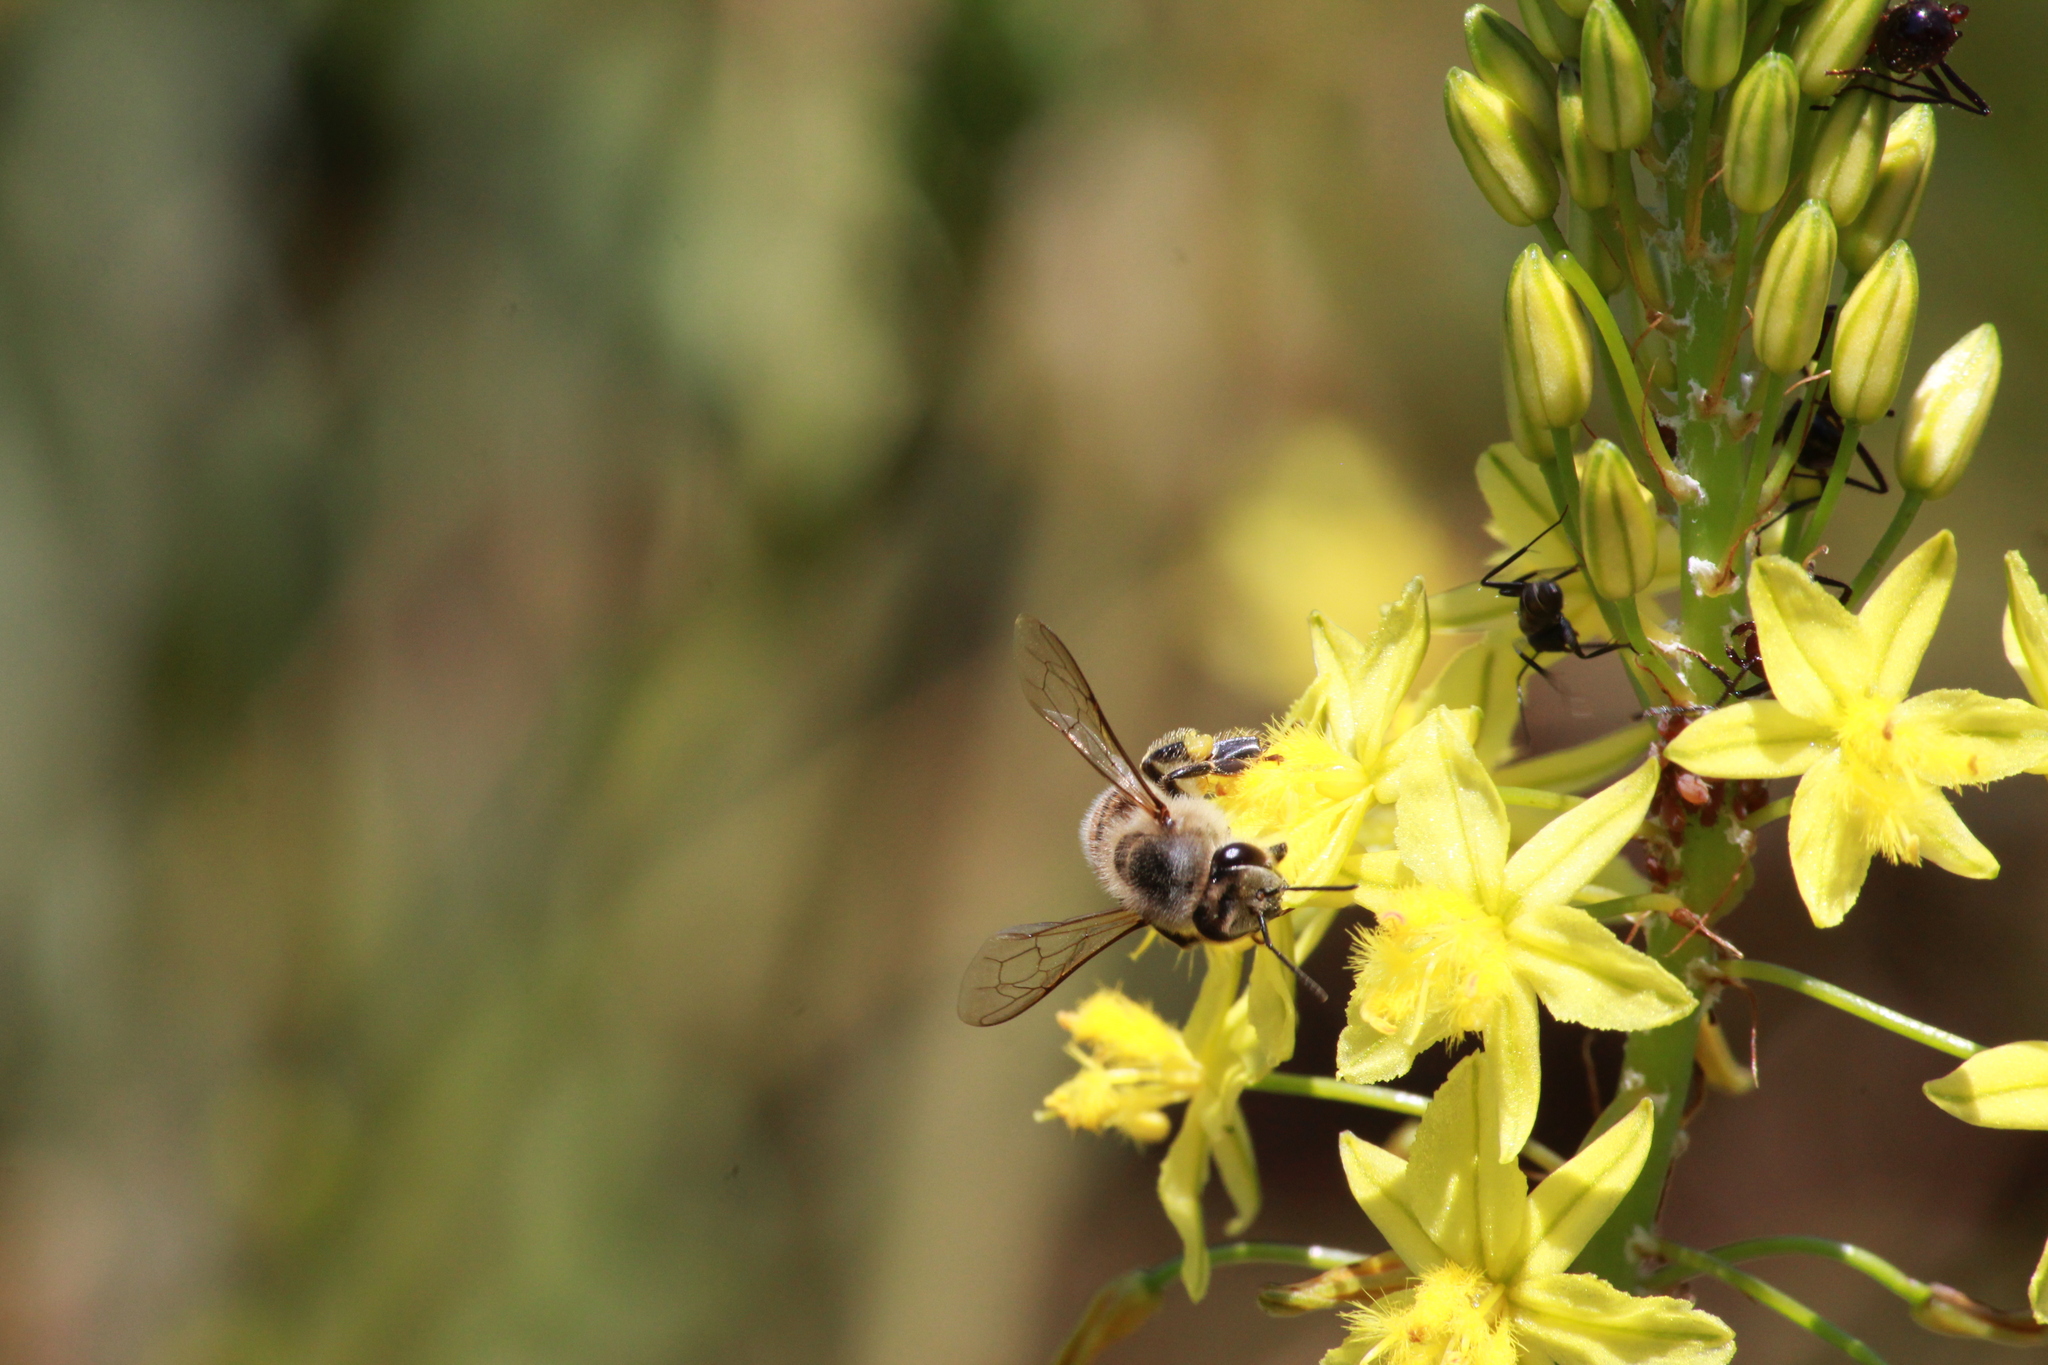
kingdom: Animalia
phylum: Arthropoda
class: Insecta
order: Hymenoptera
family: Apidae
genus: Apis
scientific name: Apis mellifera
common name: Honey bee
